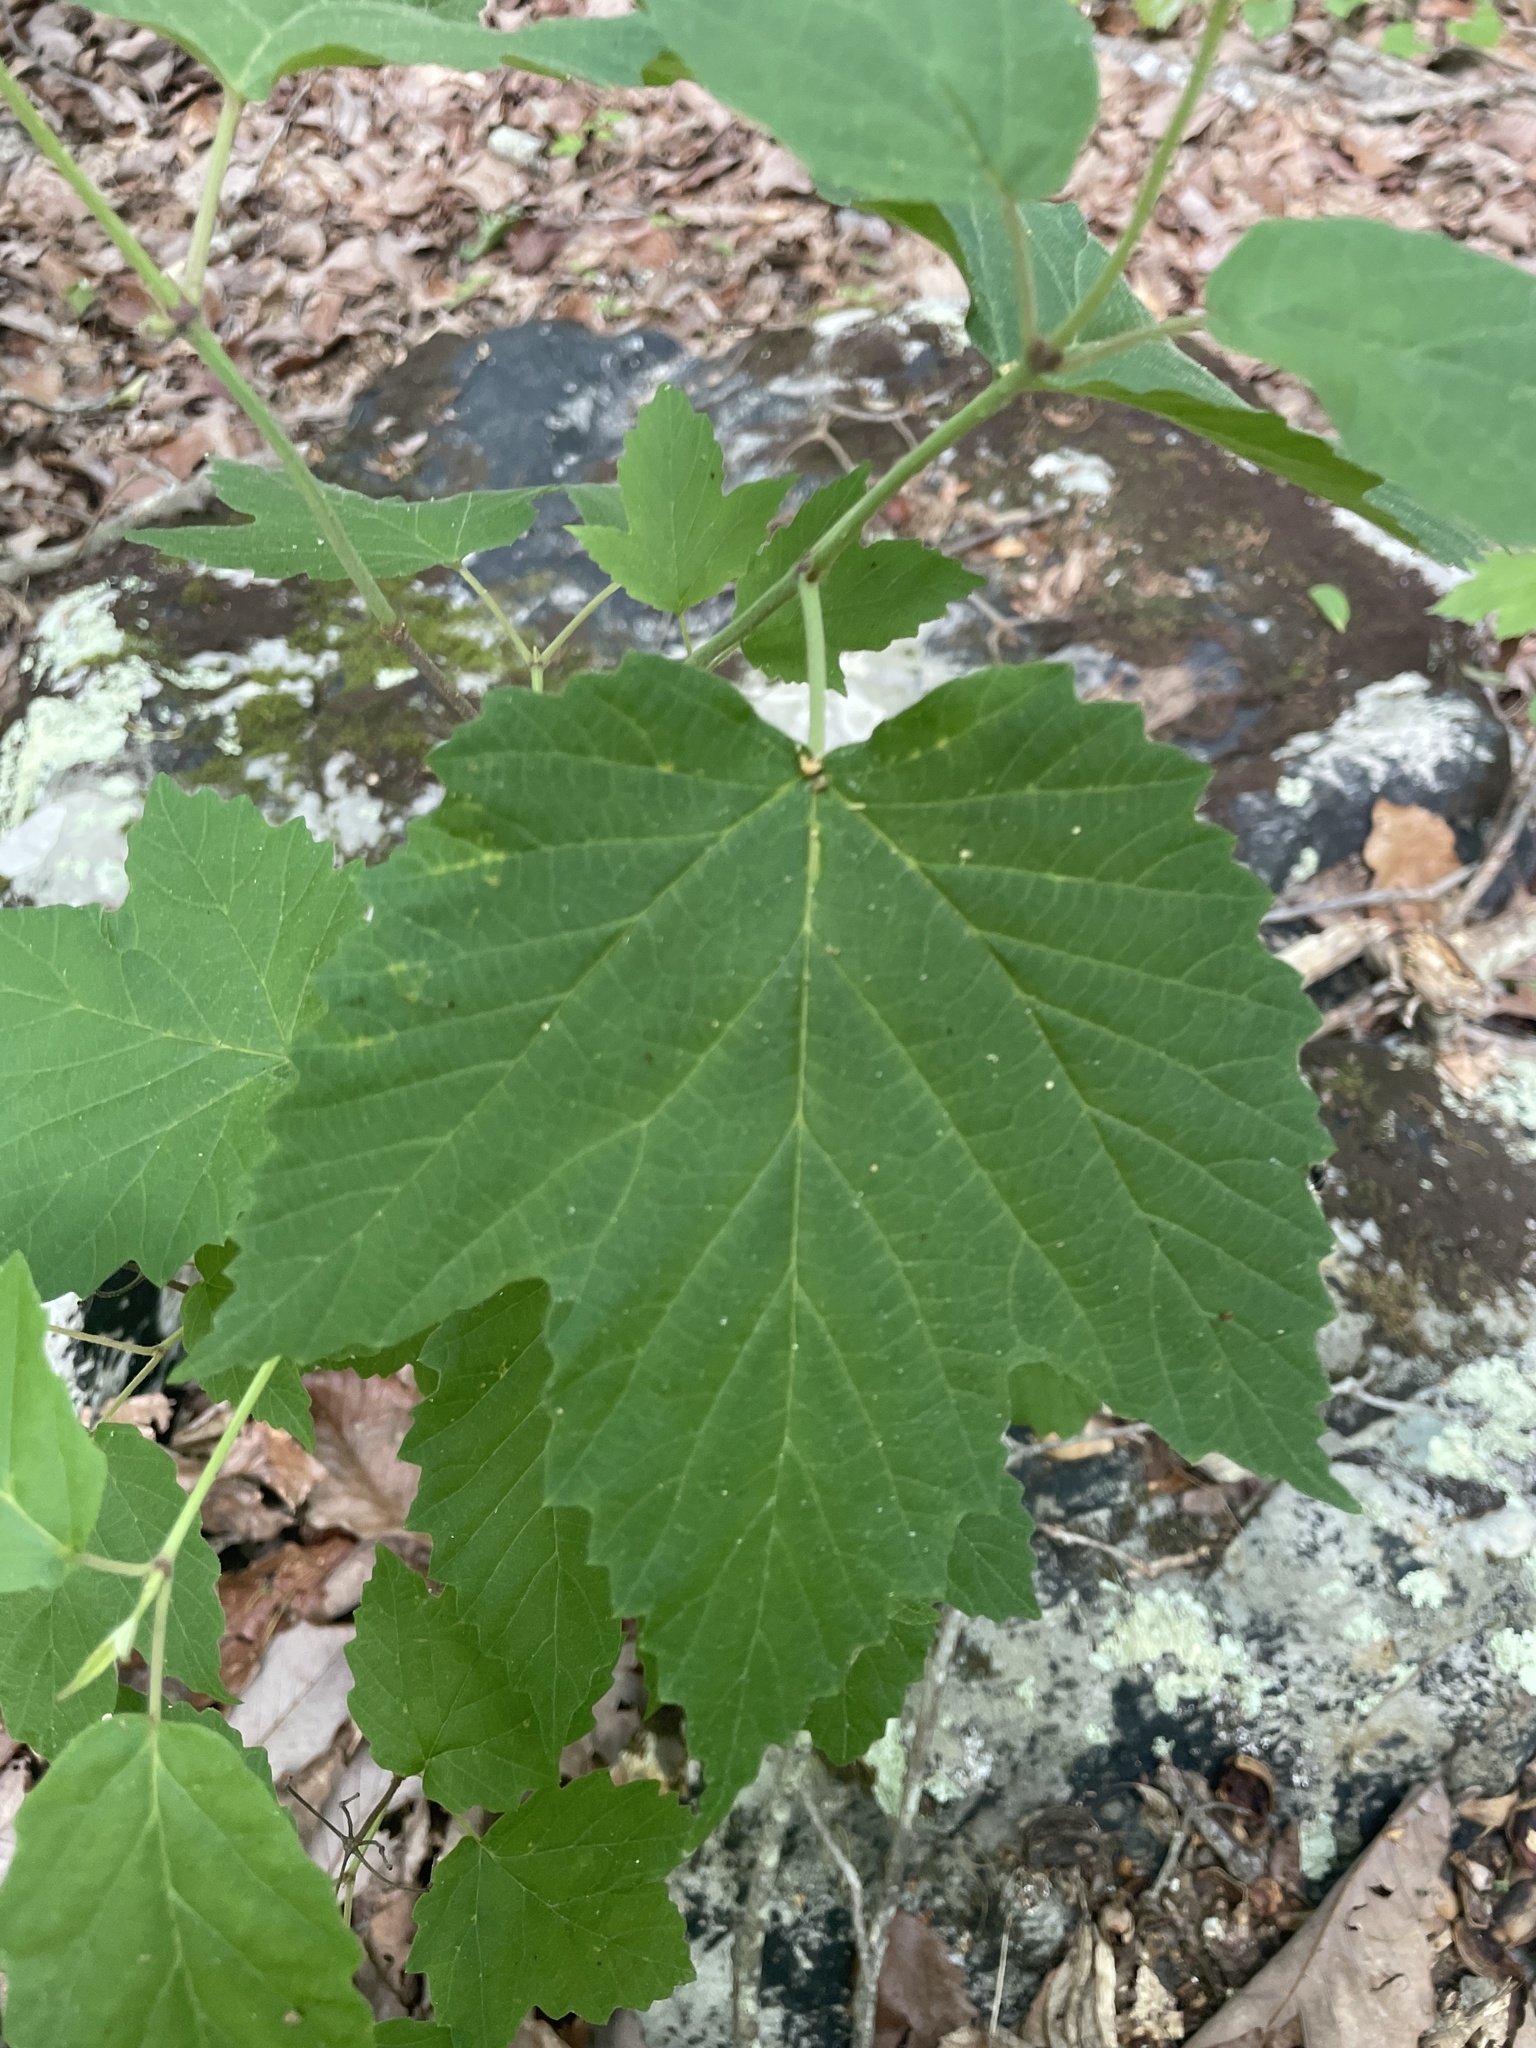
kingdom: Plantae
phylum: Tracheophyta
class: Magnoliopsida
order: Dipsacales
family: Viburnaceae
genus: Viburnum
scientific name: Viburnum acerifolium
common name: Dockmackie
